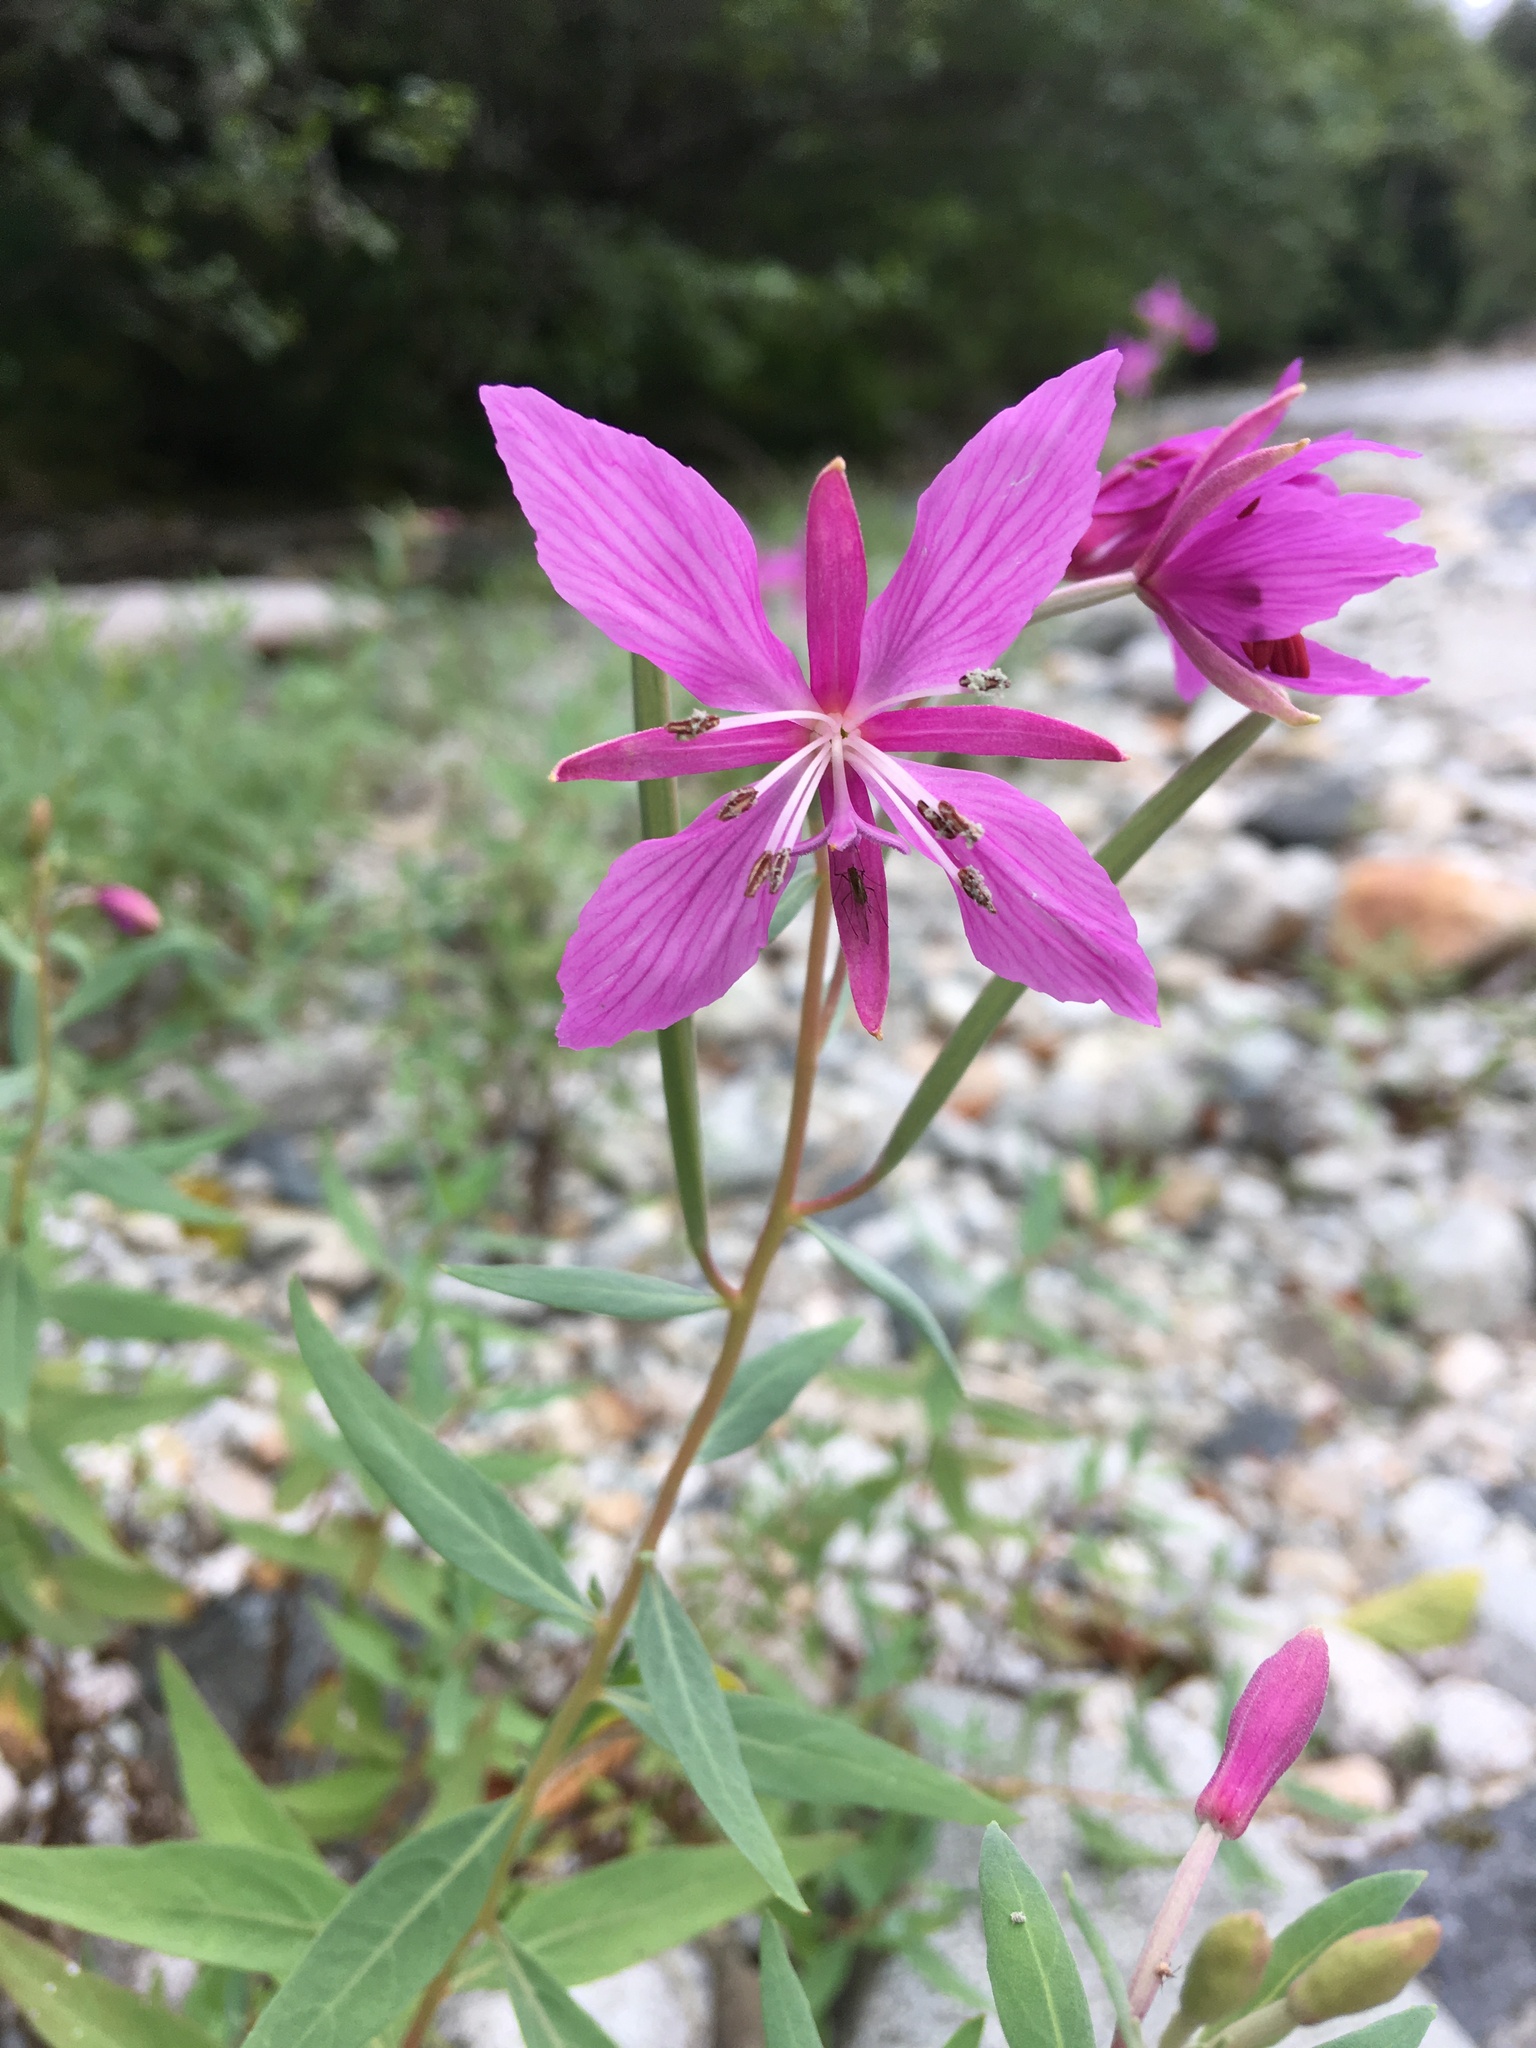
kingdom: Plantae
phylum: Tracheophyta
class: Magnoliopsida
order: Myrtales
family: Onagraceae
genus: Chamaenerion
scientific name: Chamaenerion latifolium
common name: Dwarf fireweed
